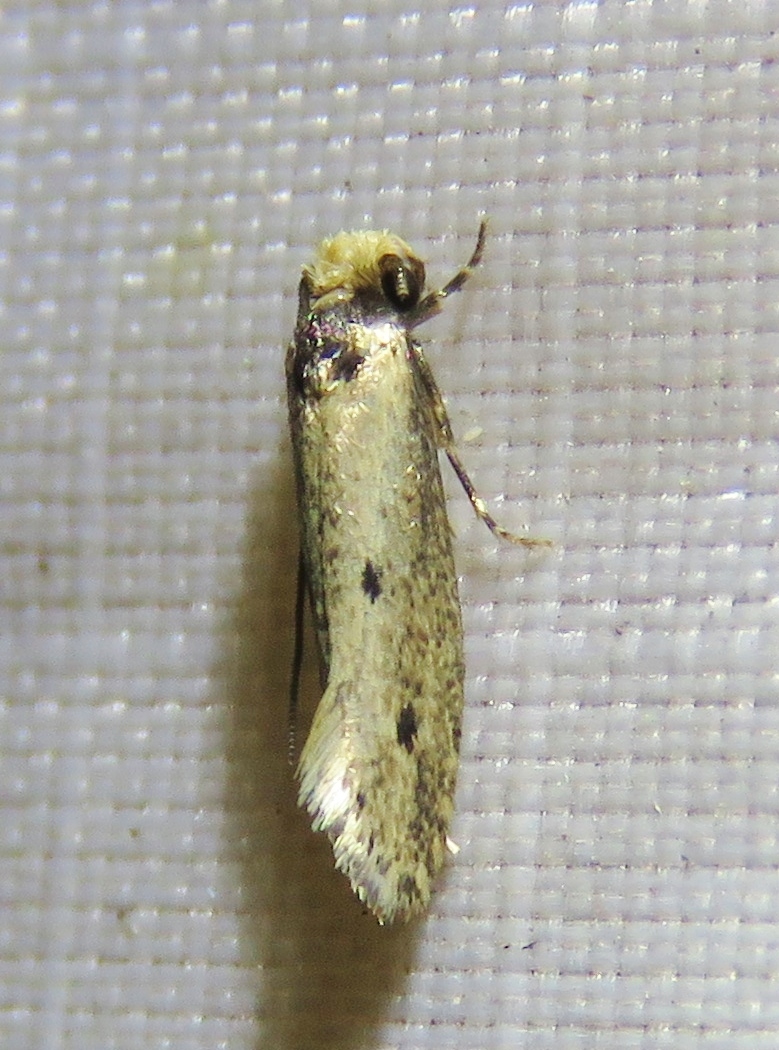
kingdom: Animalia
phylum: Arthropoda
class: Insecta
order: Lepidoptera
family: Tineidae
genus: Tinea
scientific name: Tinea apicimaculella
